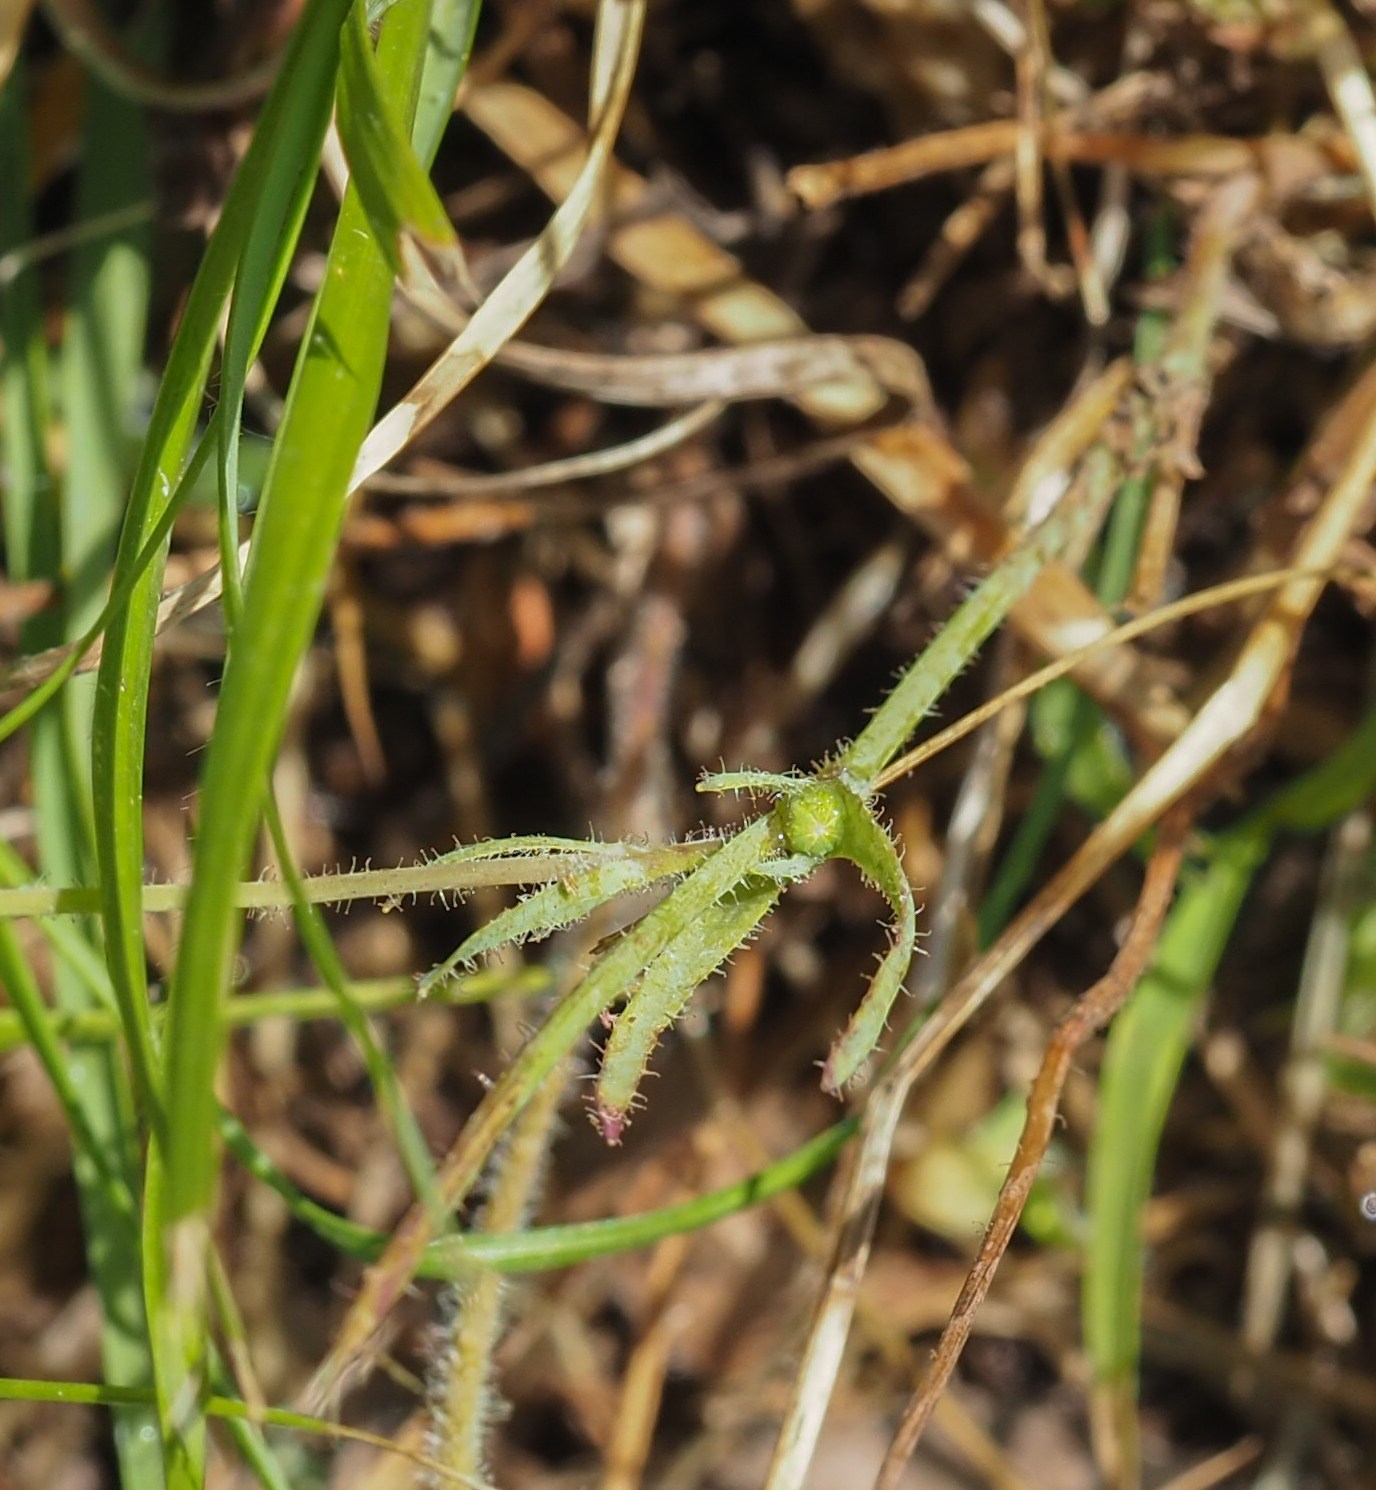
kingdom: Plantae
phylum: Tracheophyta
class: Magnoliopsida
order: Asterales
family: Asteraceae
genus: Krigia
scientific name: Krigia virginica
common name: Virginia dwarf-dandelion
